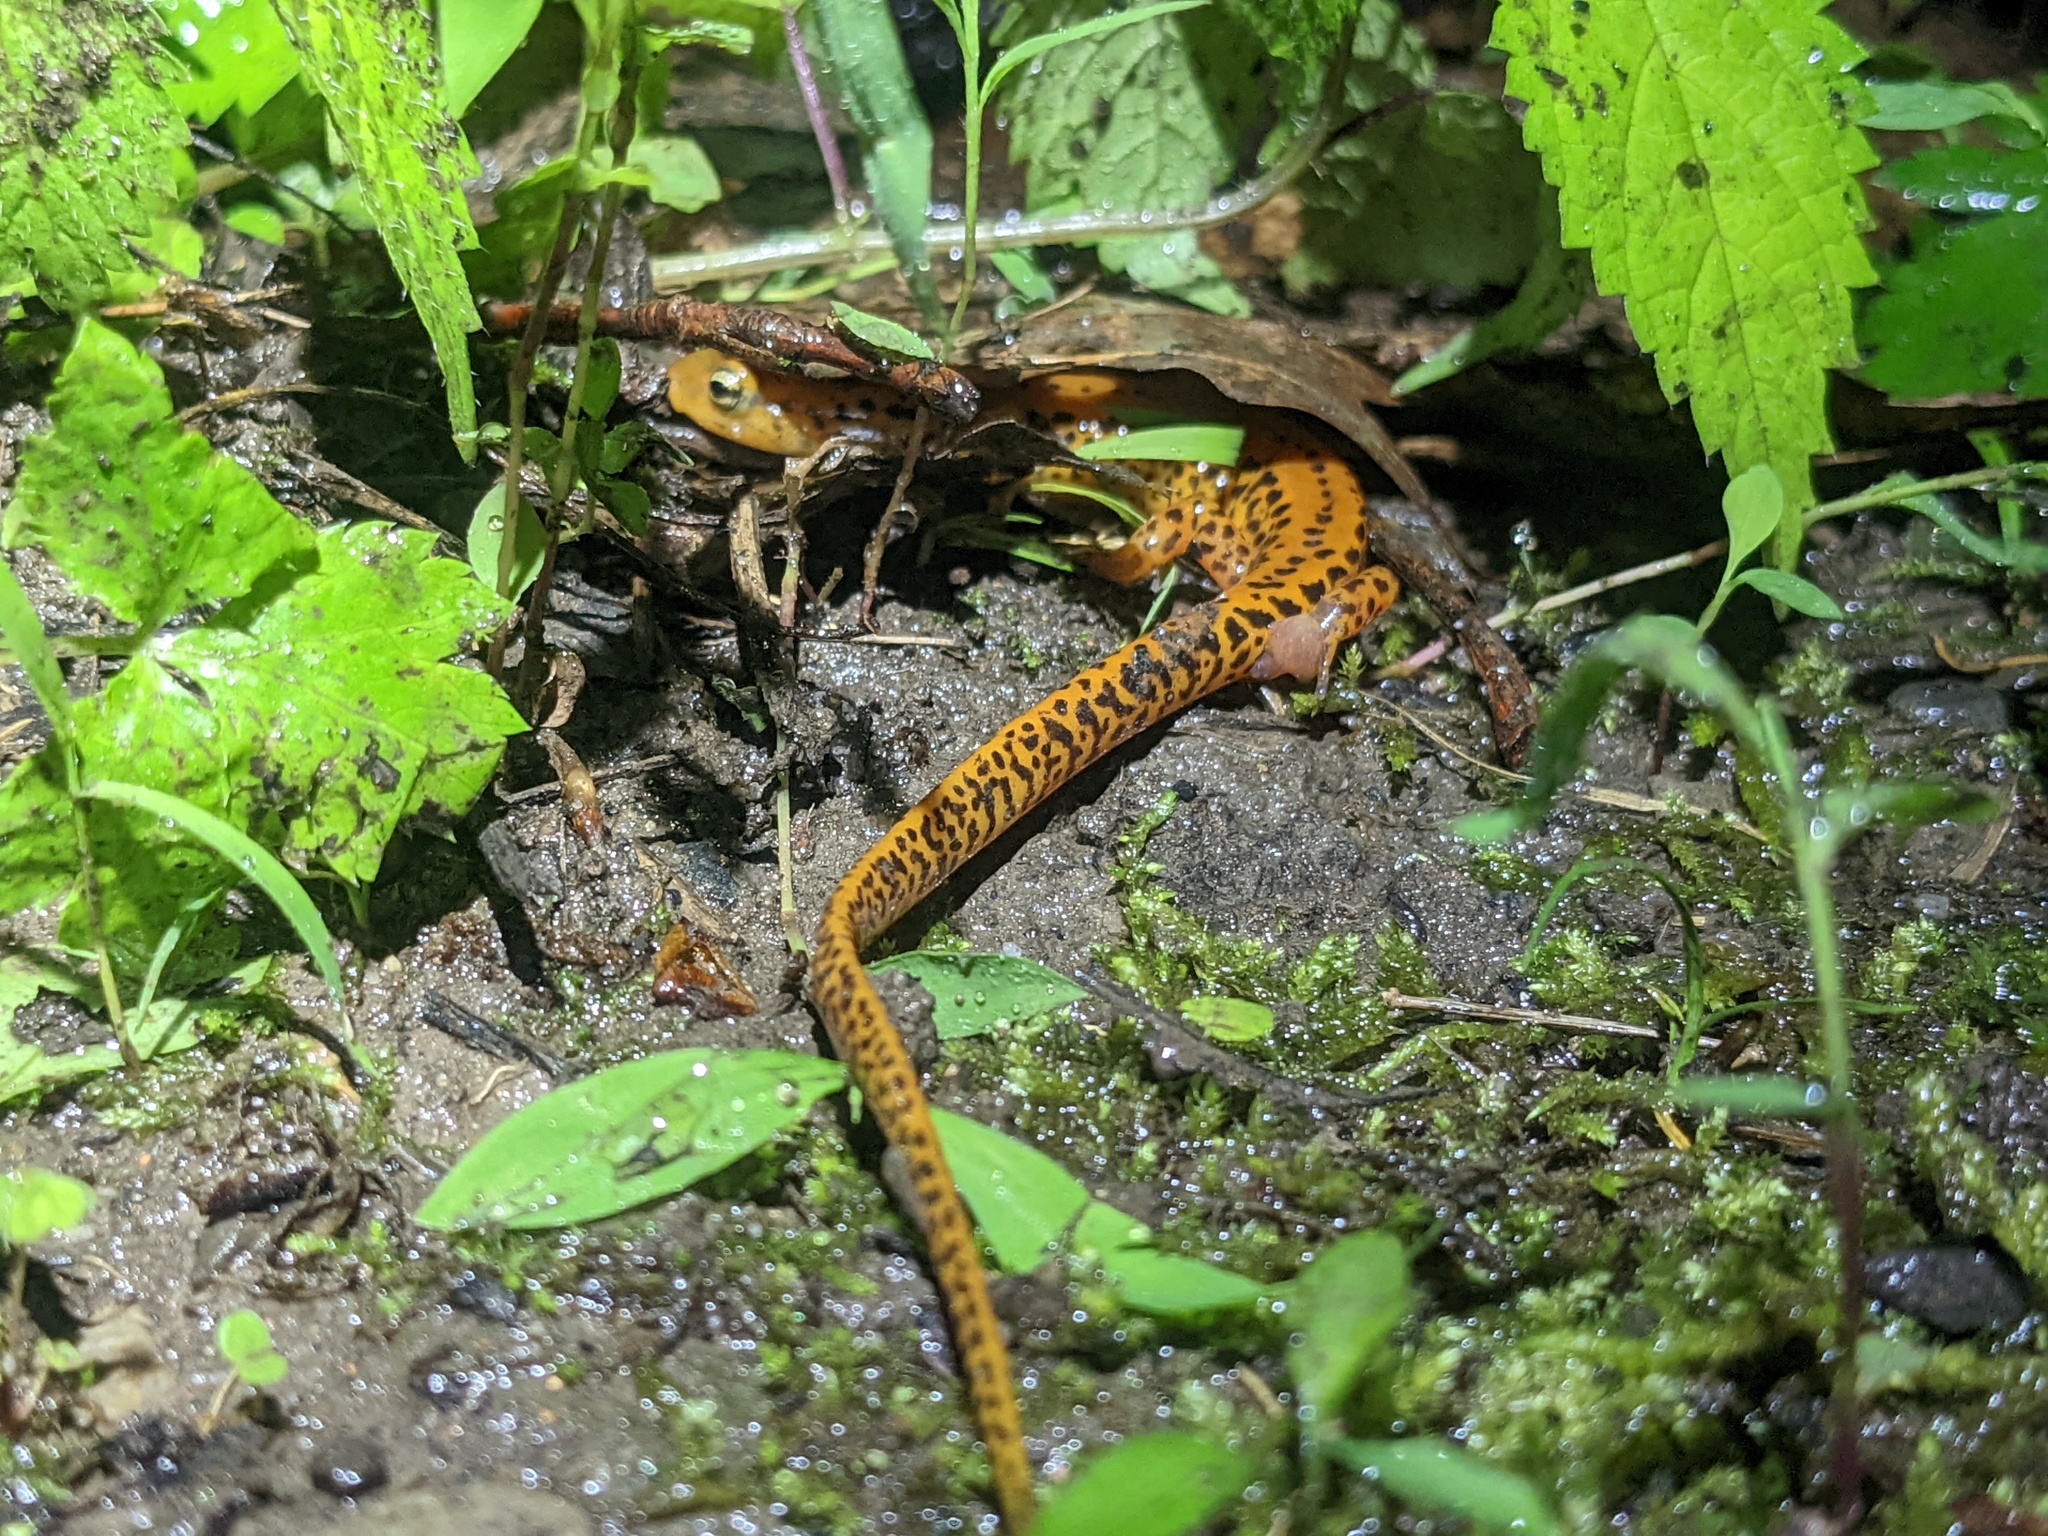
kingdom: Animalia
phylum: Chordata
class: Amphibia
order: Caudata
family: Plethodontidae
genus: Eurycea
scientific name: Eurycea longicauda
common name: Long-tailed salamander
